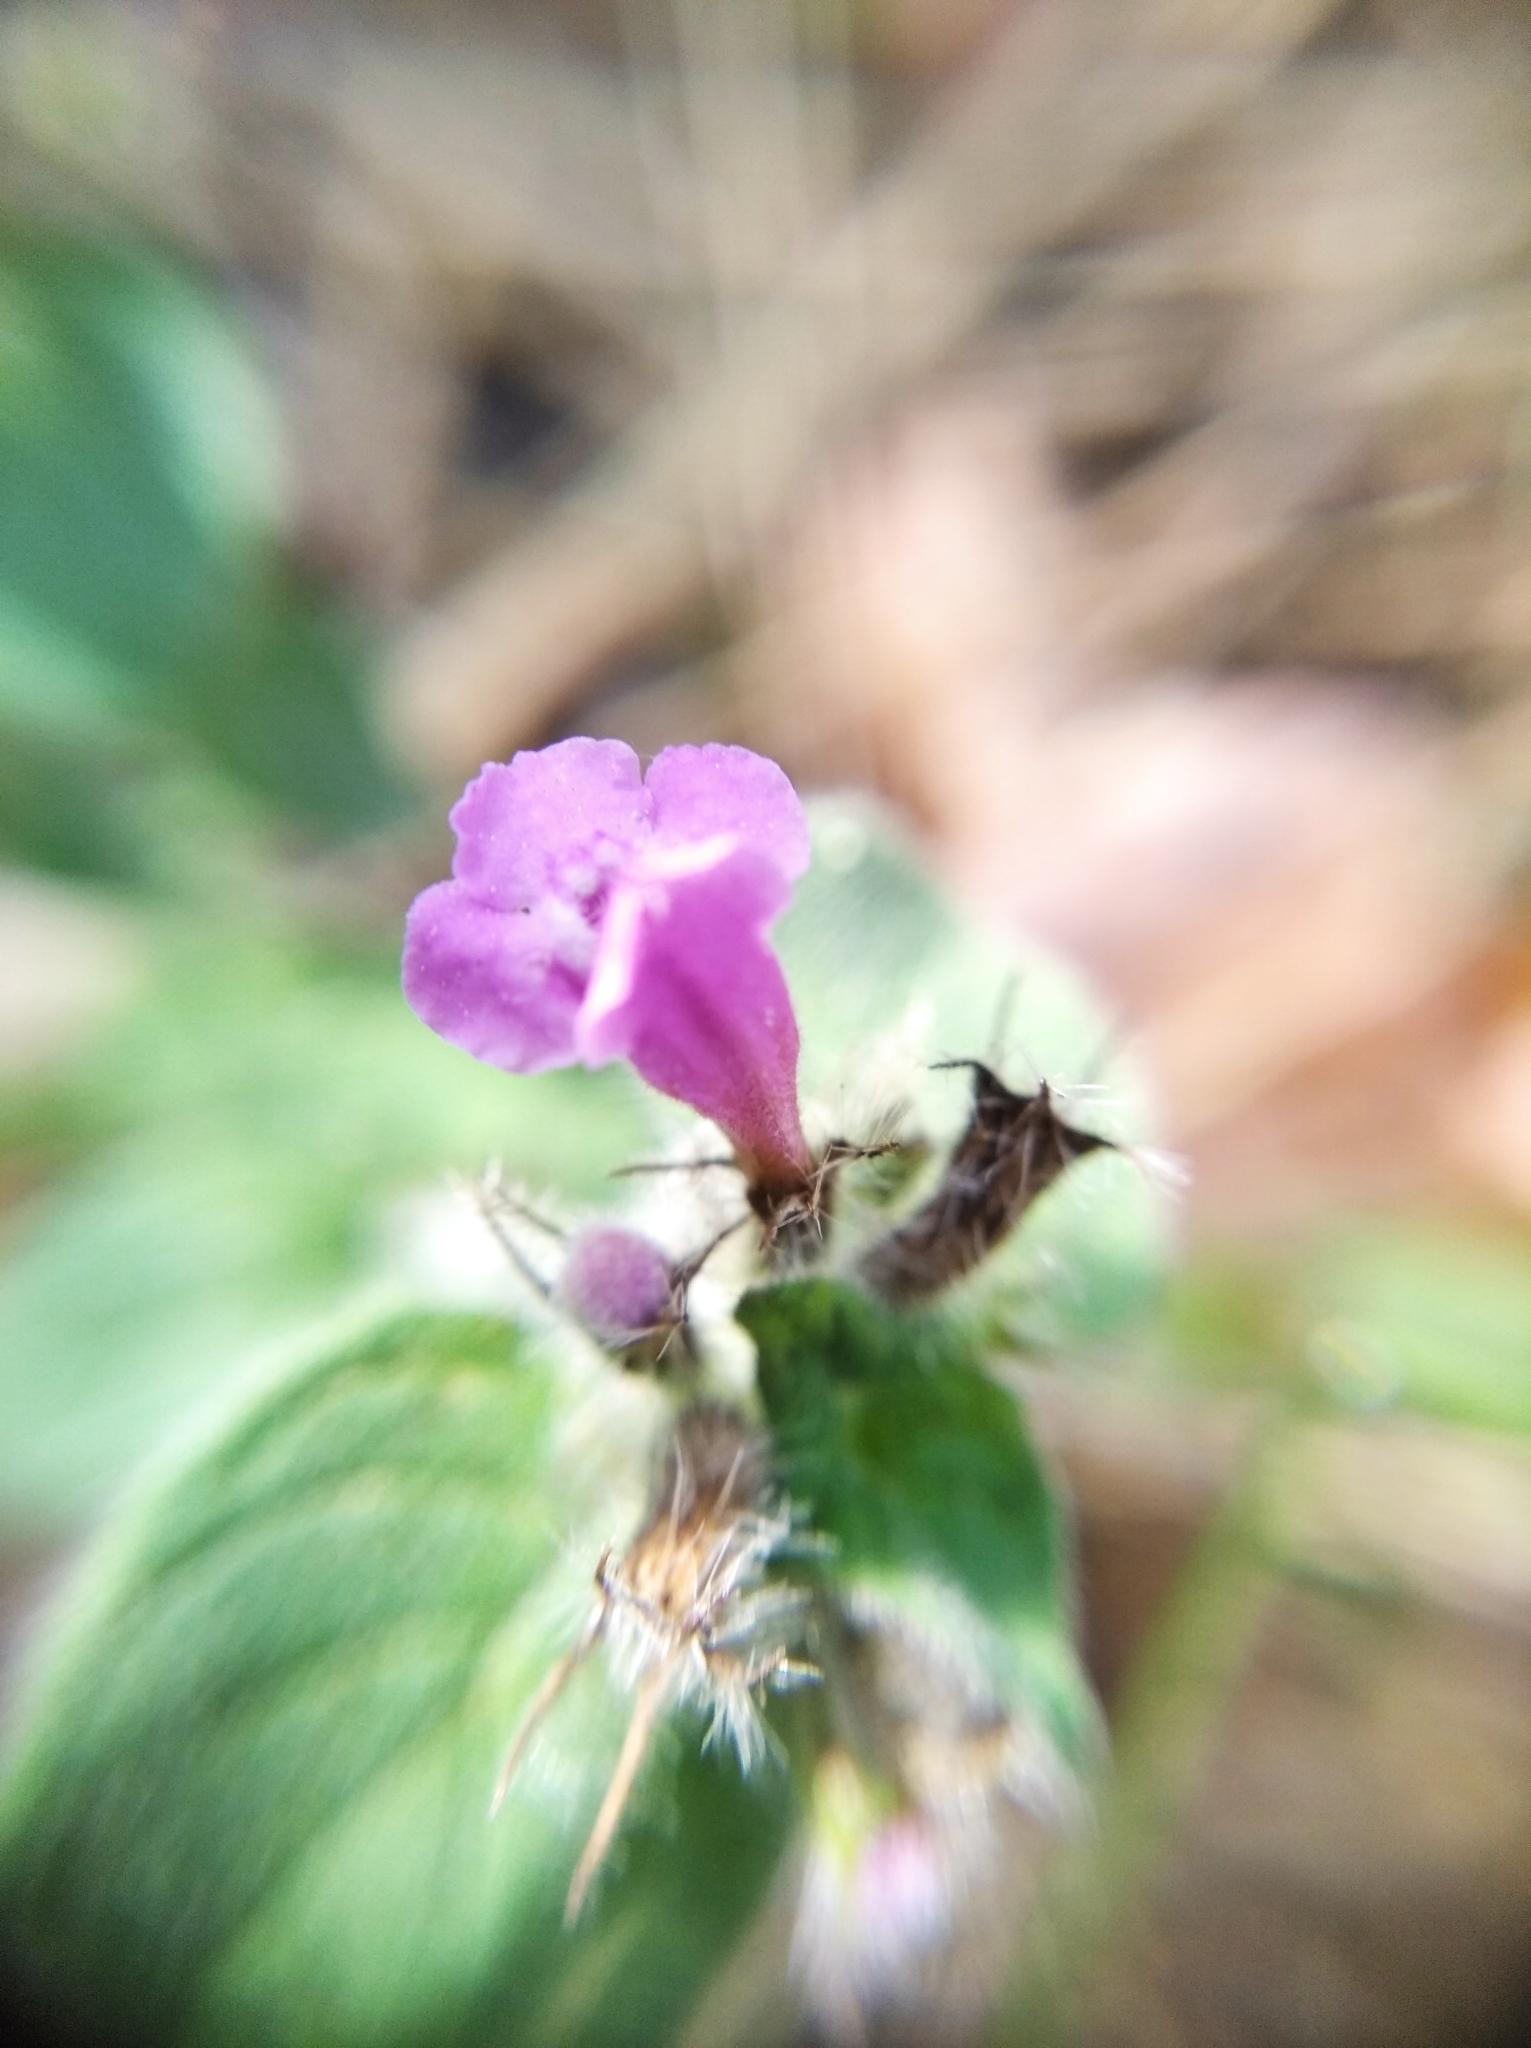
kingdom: Plantae
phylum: Tracheophyta
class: Magnoliopsida
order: Lamiales
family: Lamiaceae
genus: Clinopodium
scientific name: Clinopodium vulgare
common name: Wild basil
